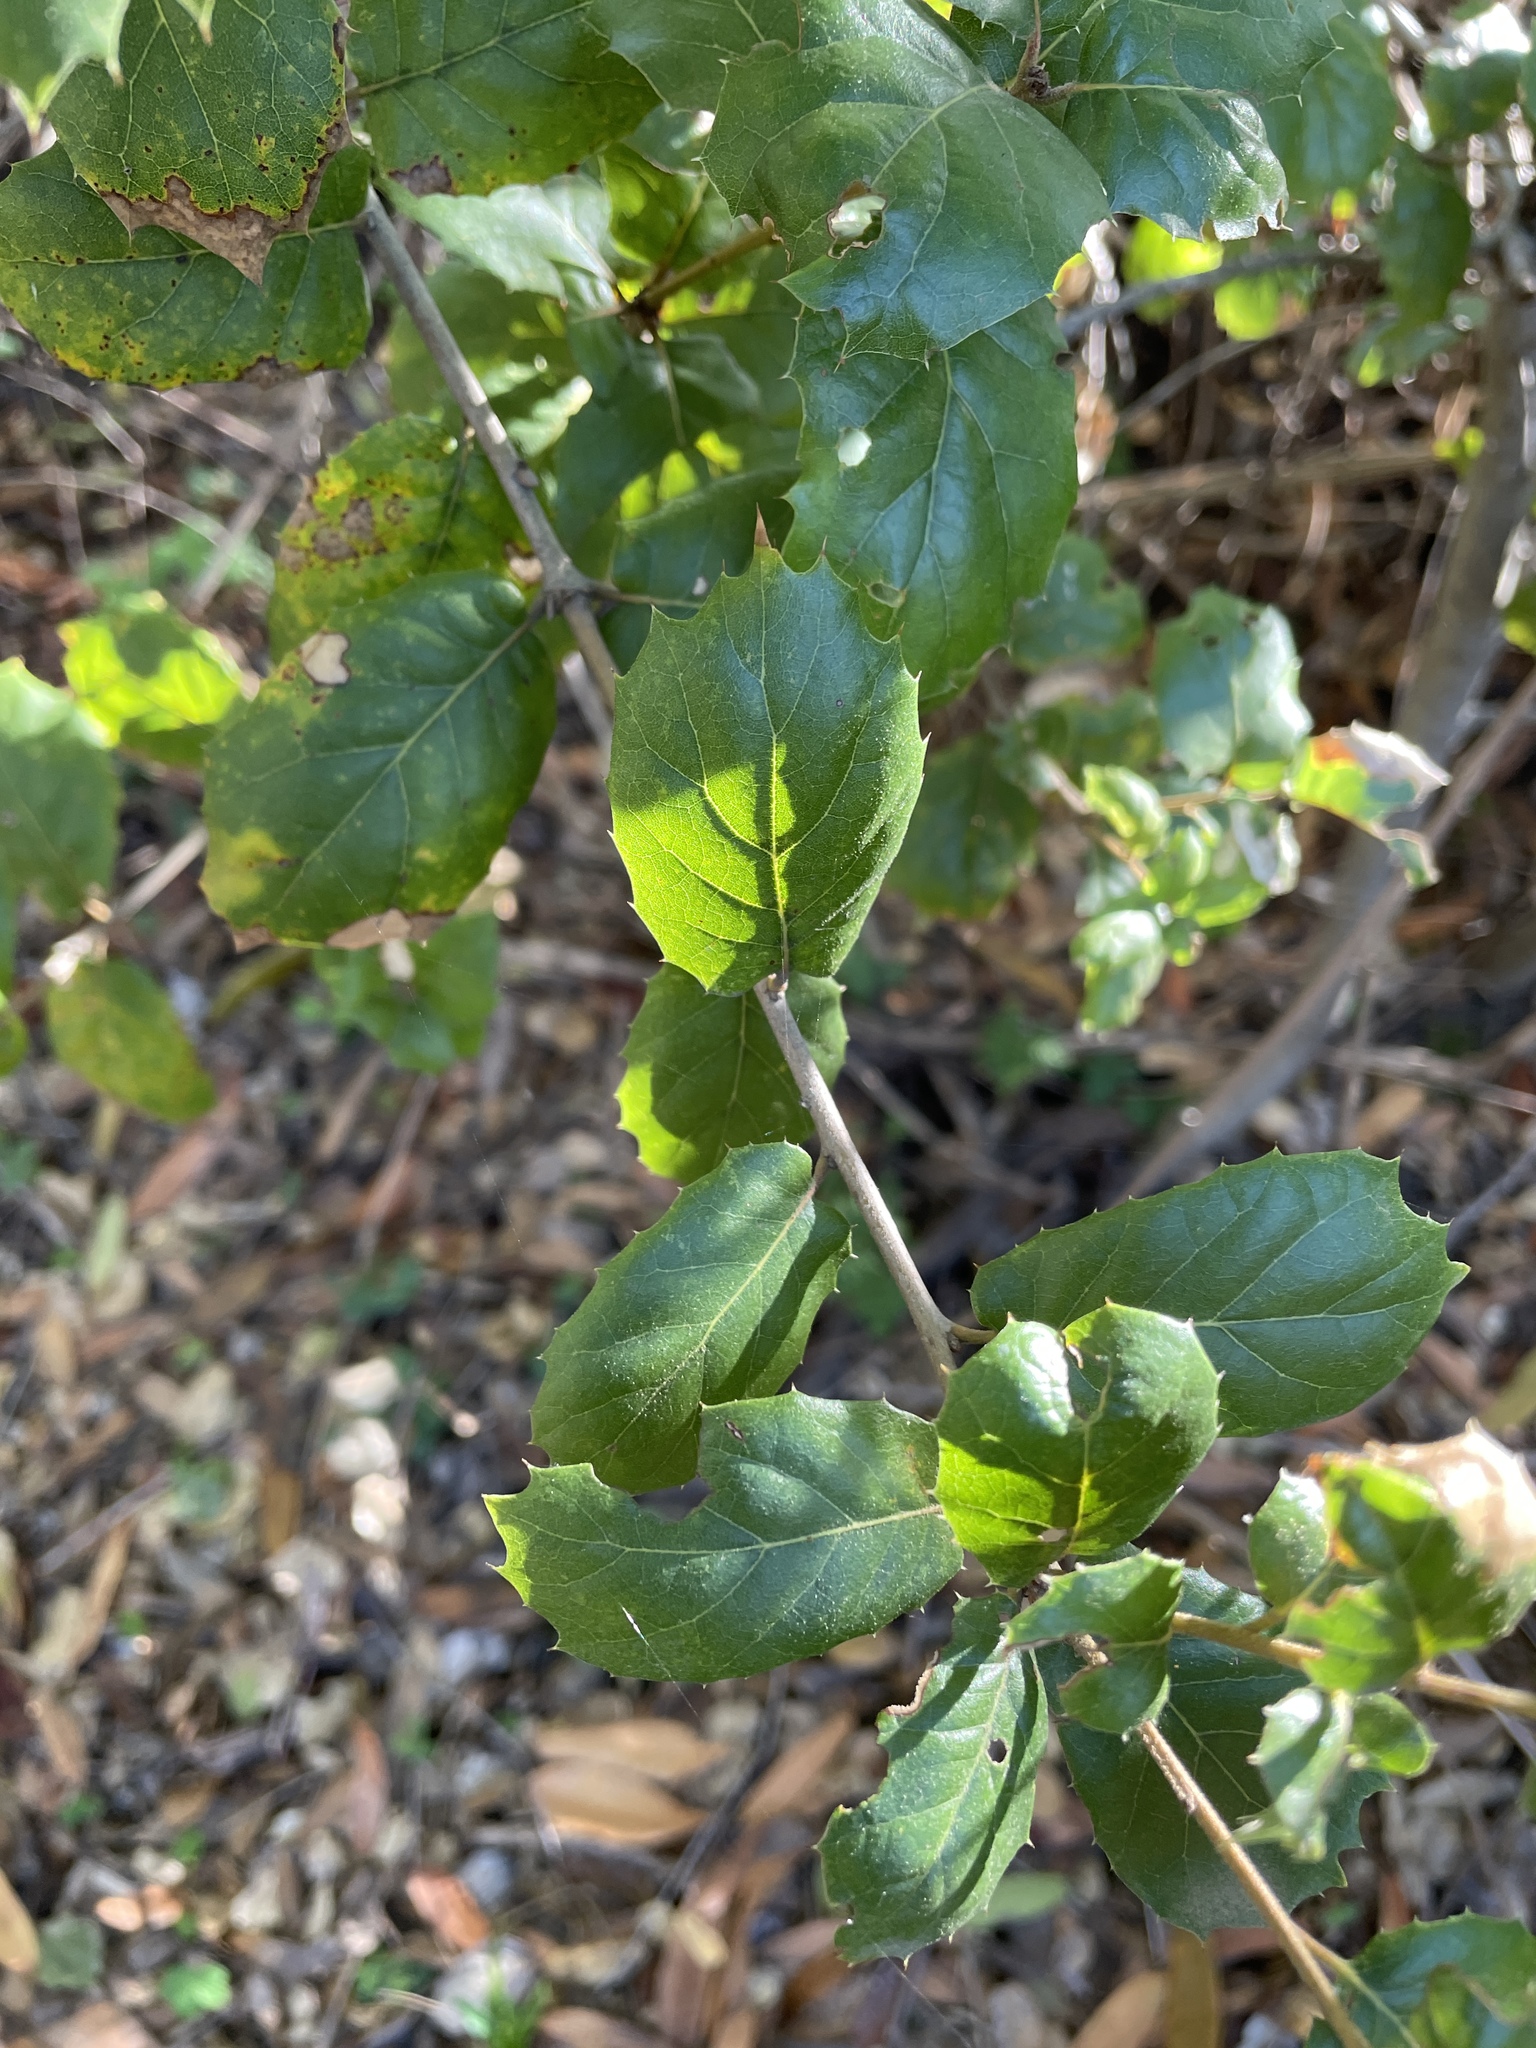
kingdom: Plantae
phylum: Tracheophyta
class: Magnoliopsida
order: Fagales
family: Fagaceae
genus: Quercus
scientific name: Quercus agrifolia
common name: California live oak
